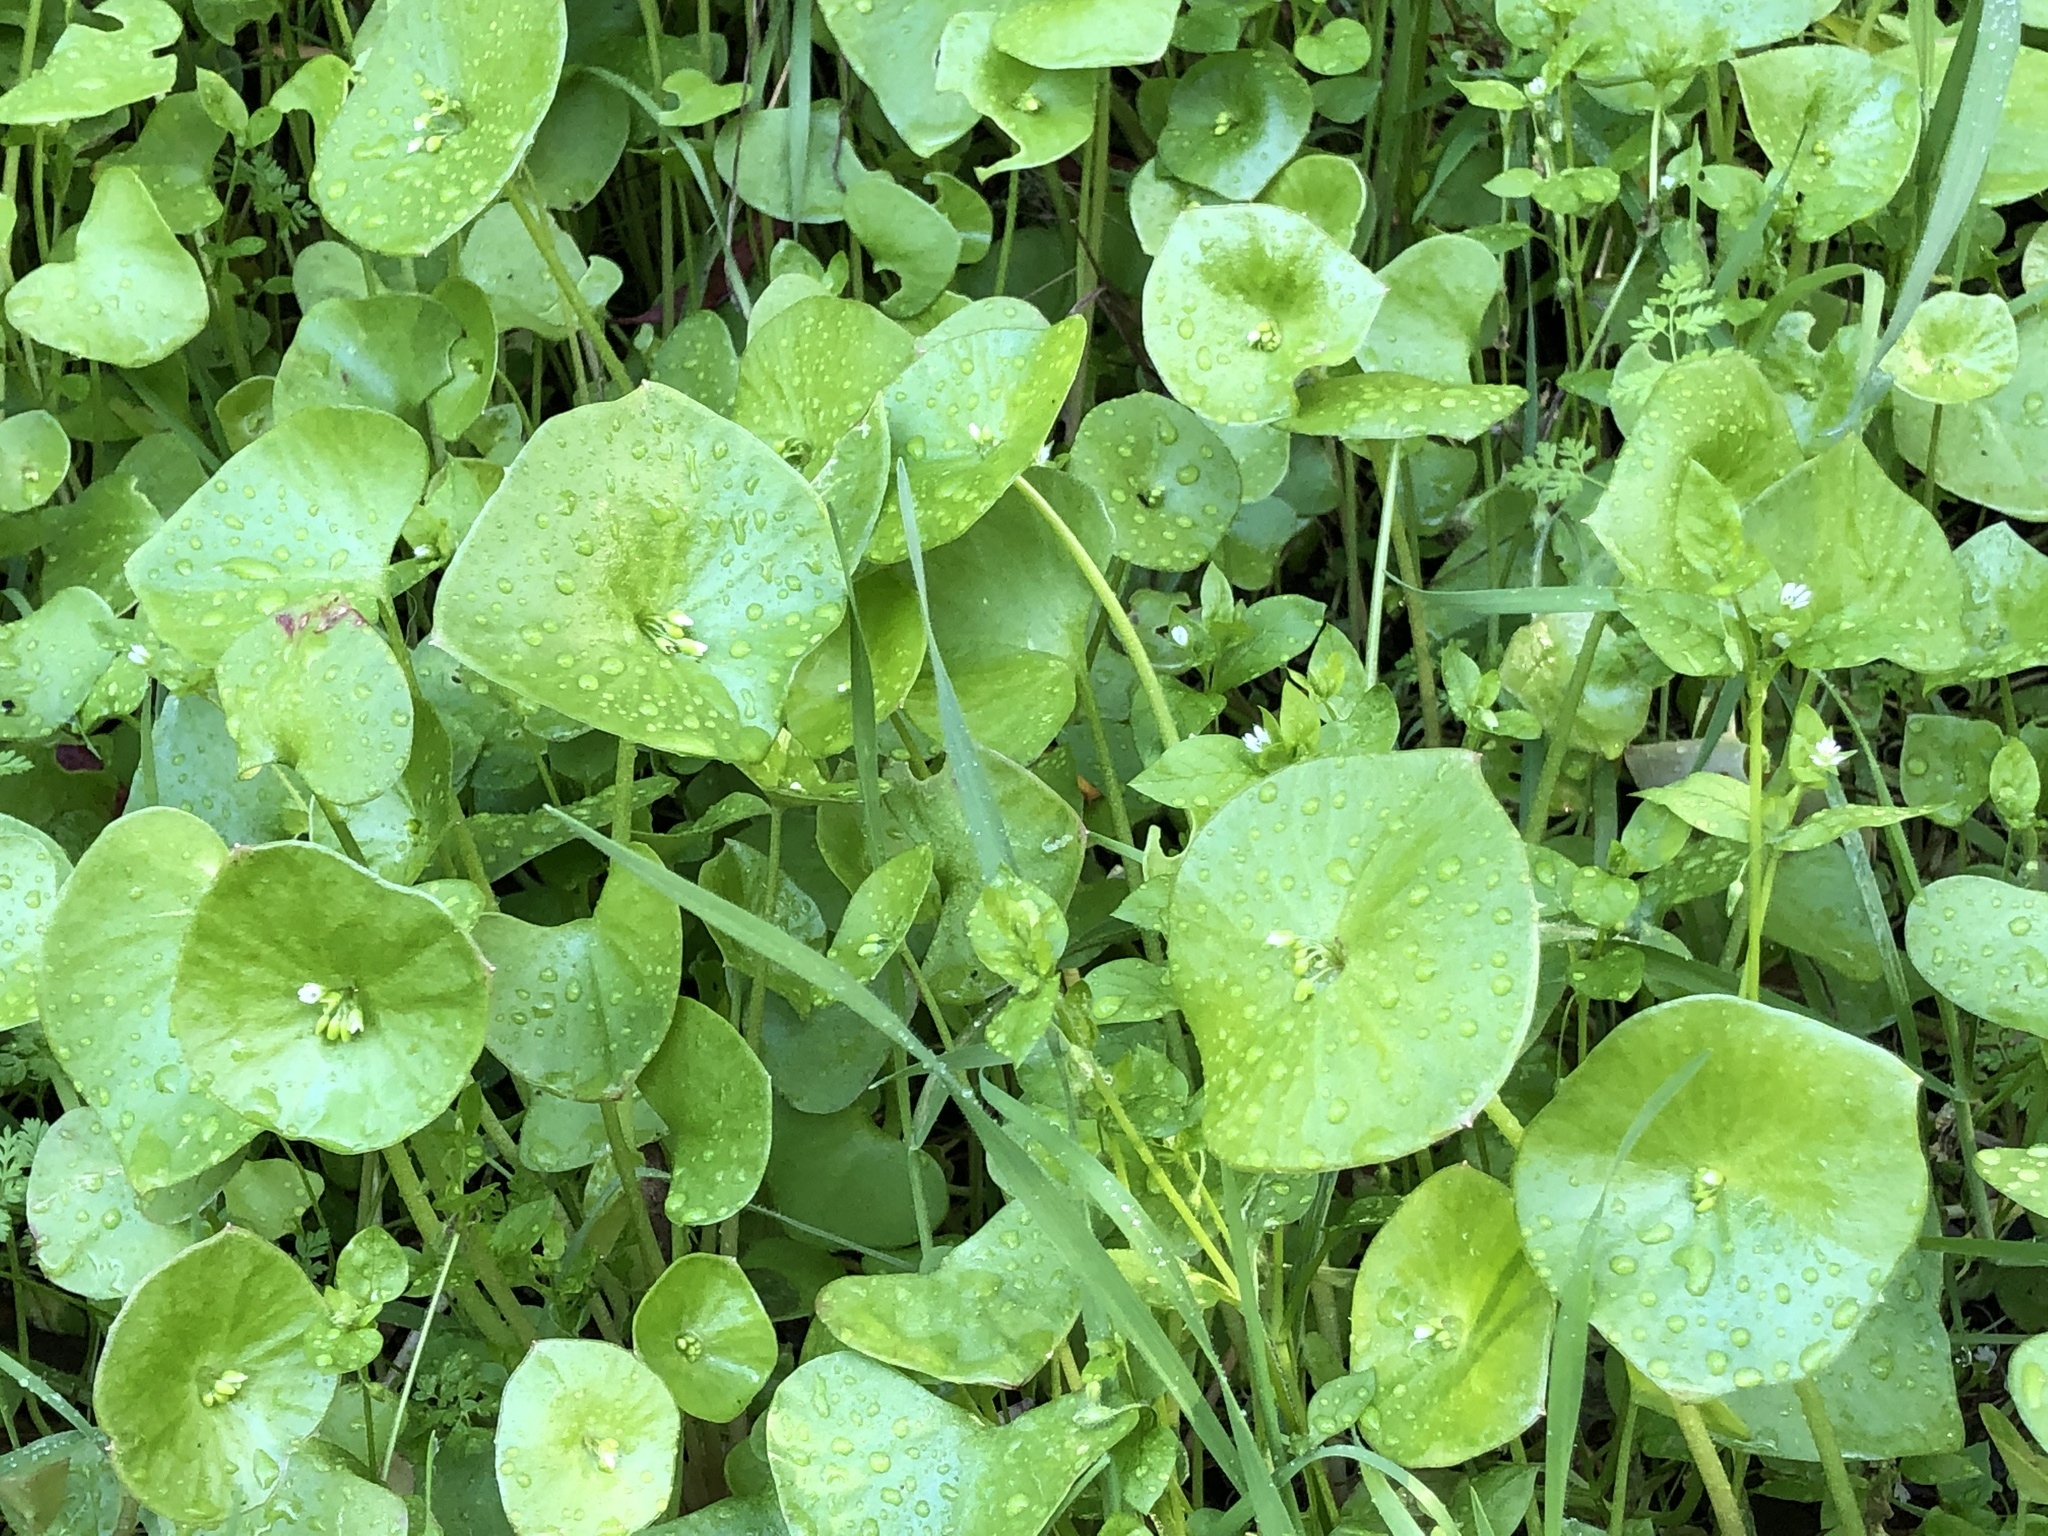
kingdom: Plantae
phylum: Tracheophyta
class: Magnoliopsida
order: Caryophyllales
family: Montiaceae
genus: Claytonia
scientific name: Claytonia perfoliata
